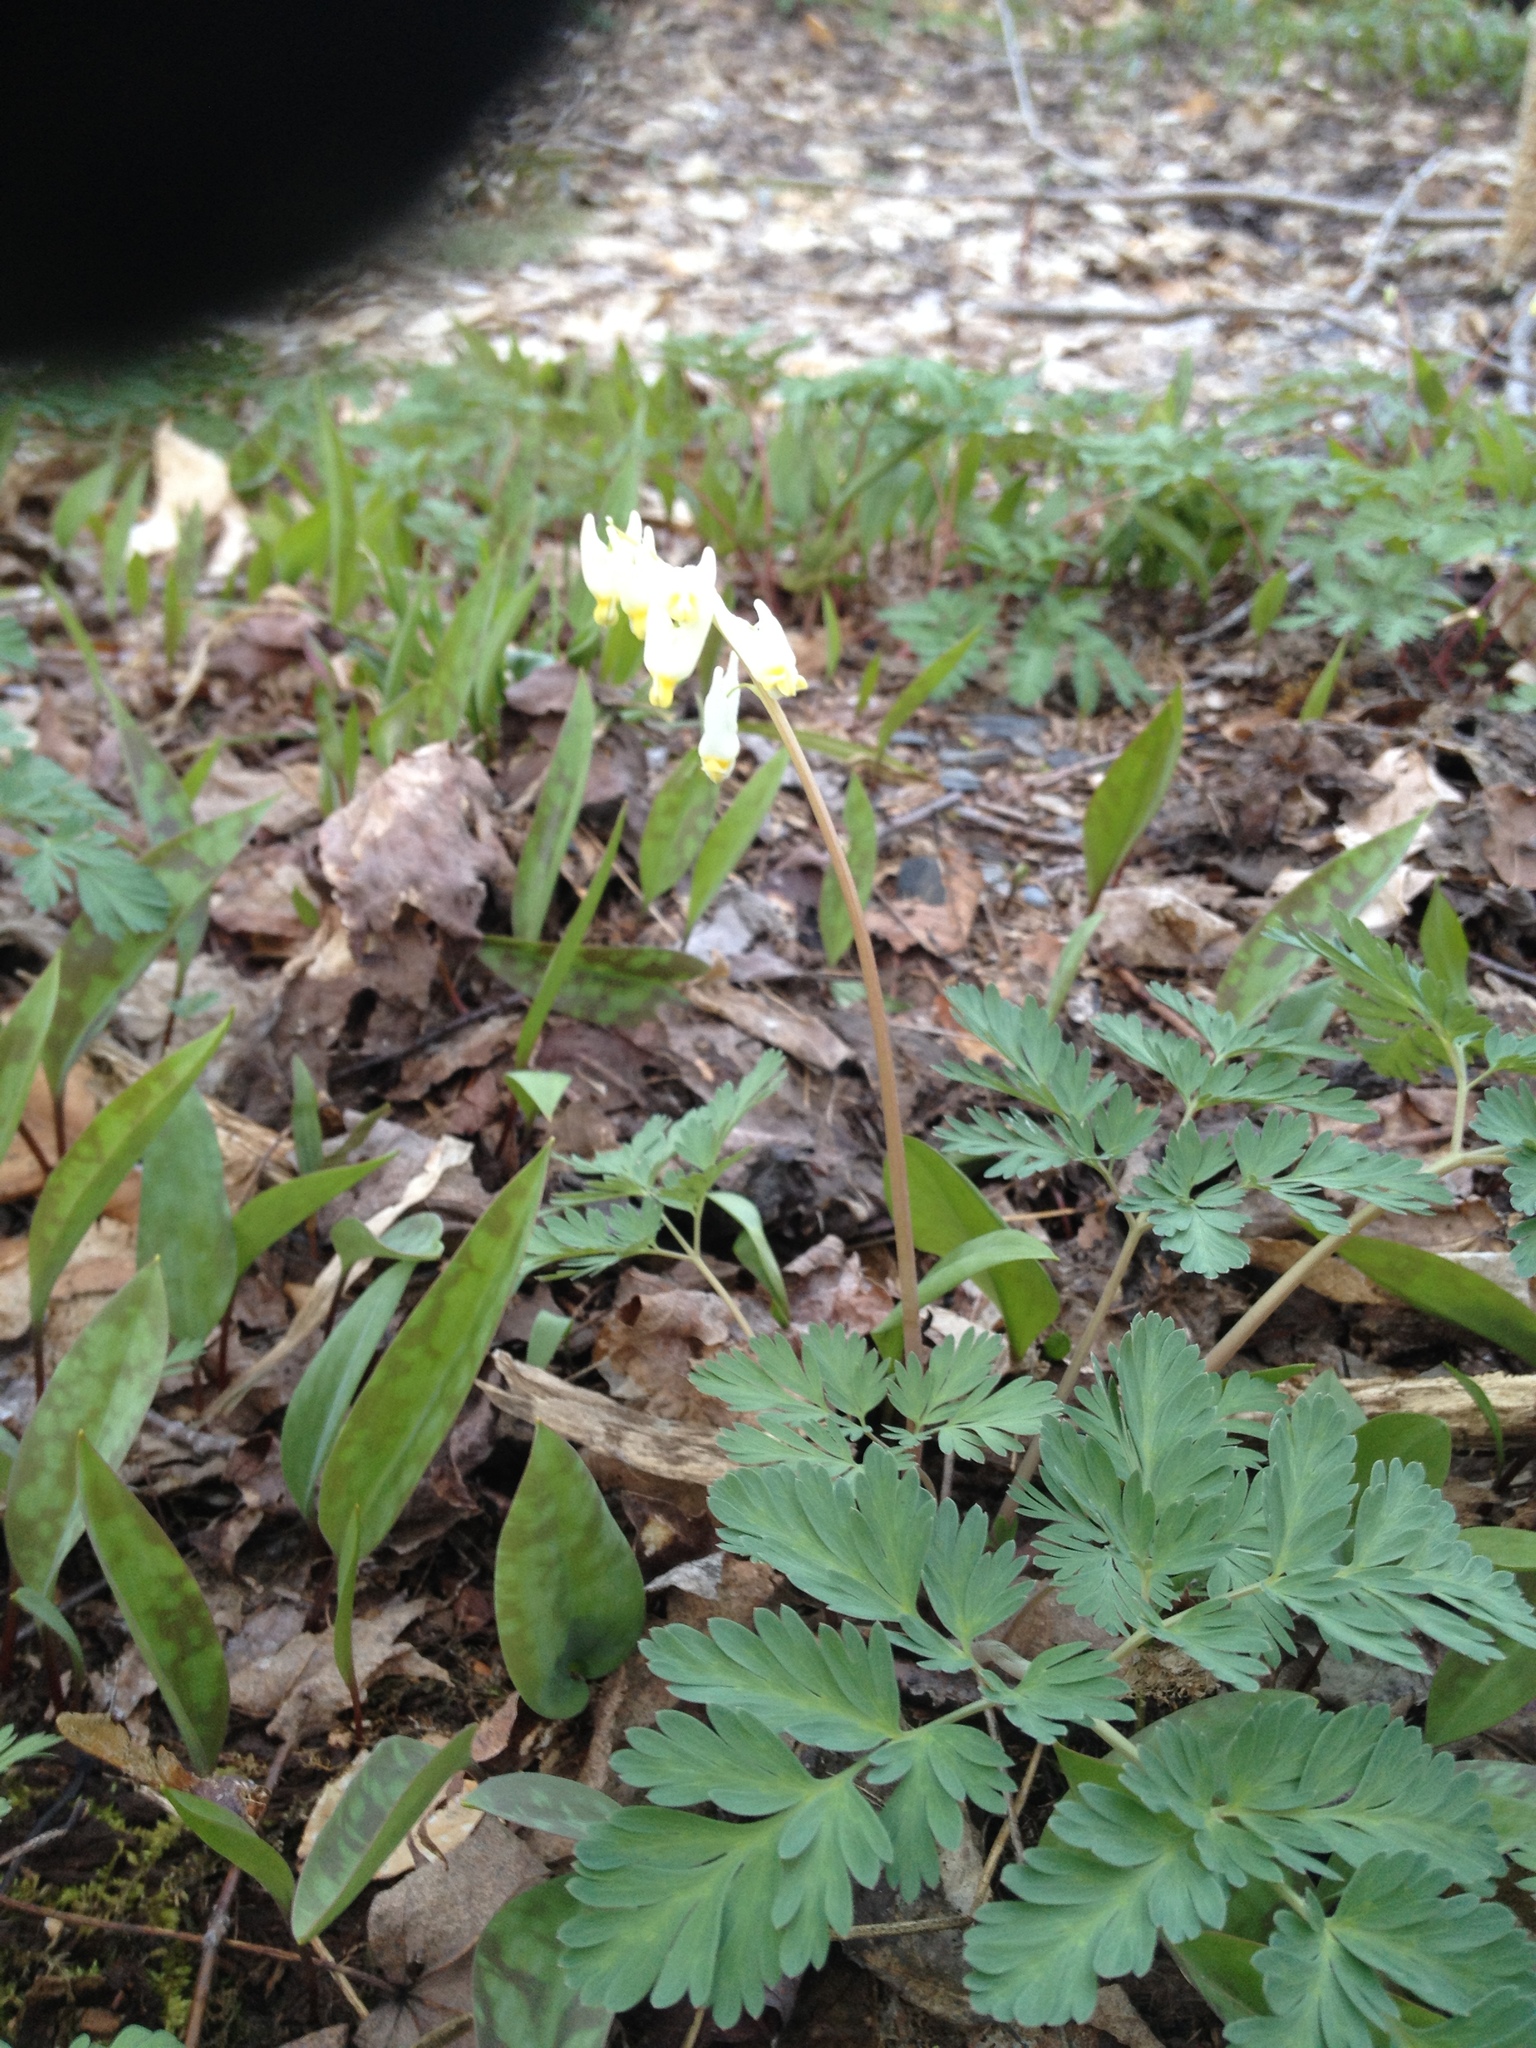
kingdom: Plantae
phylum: Tracheophyta
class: Magnoliopsida
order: Ranunculales
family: Papaveraceae
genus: Dicentra
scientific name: Dicentra cucullaria
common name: Dutchman's breeches
